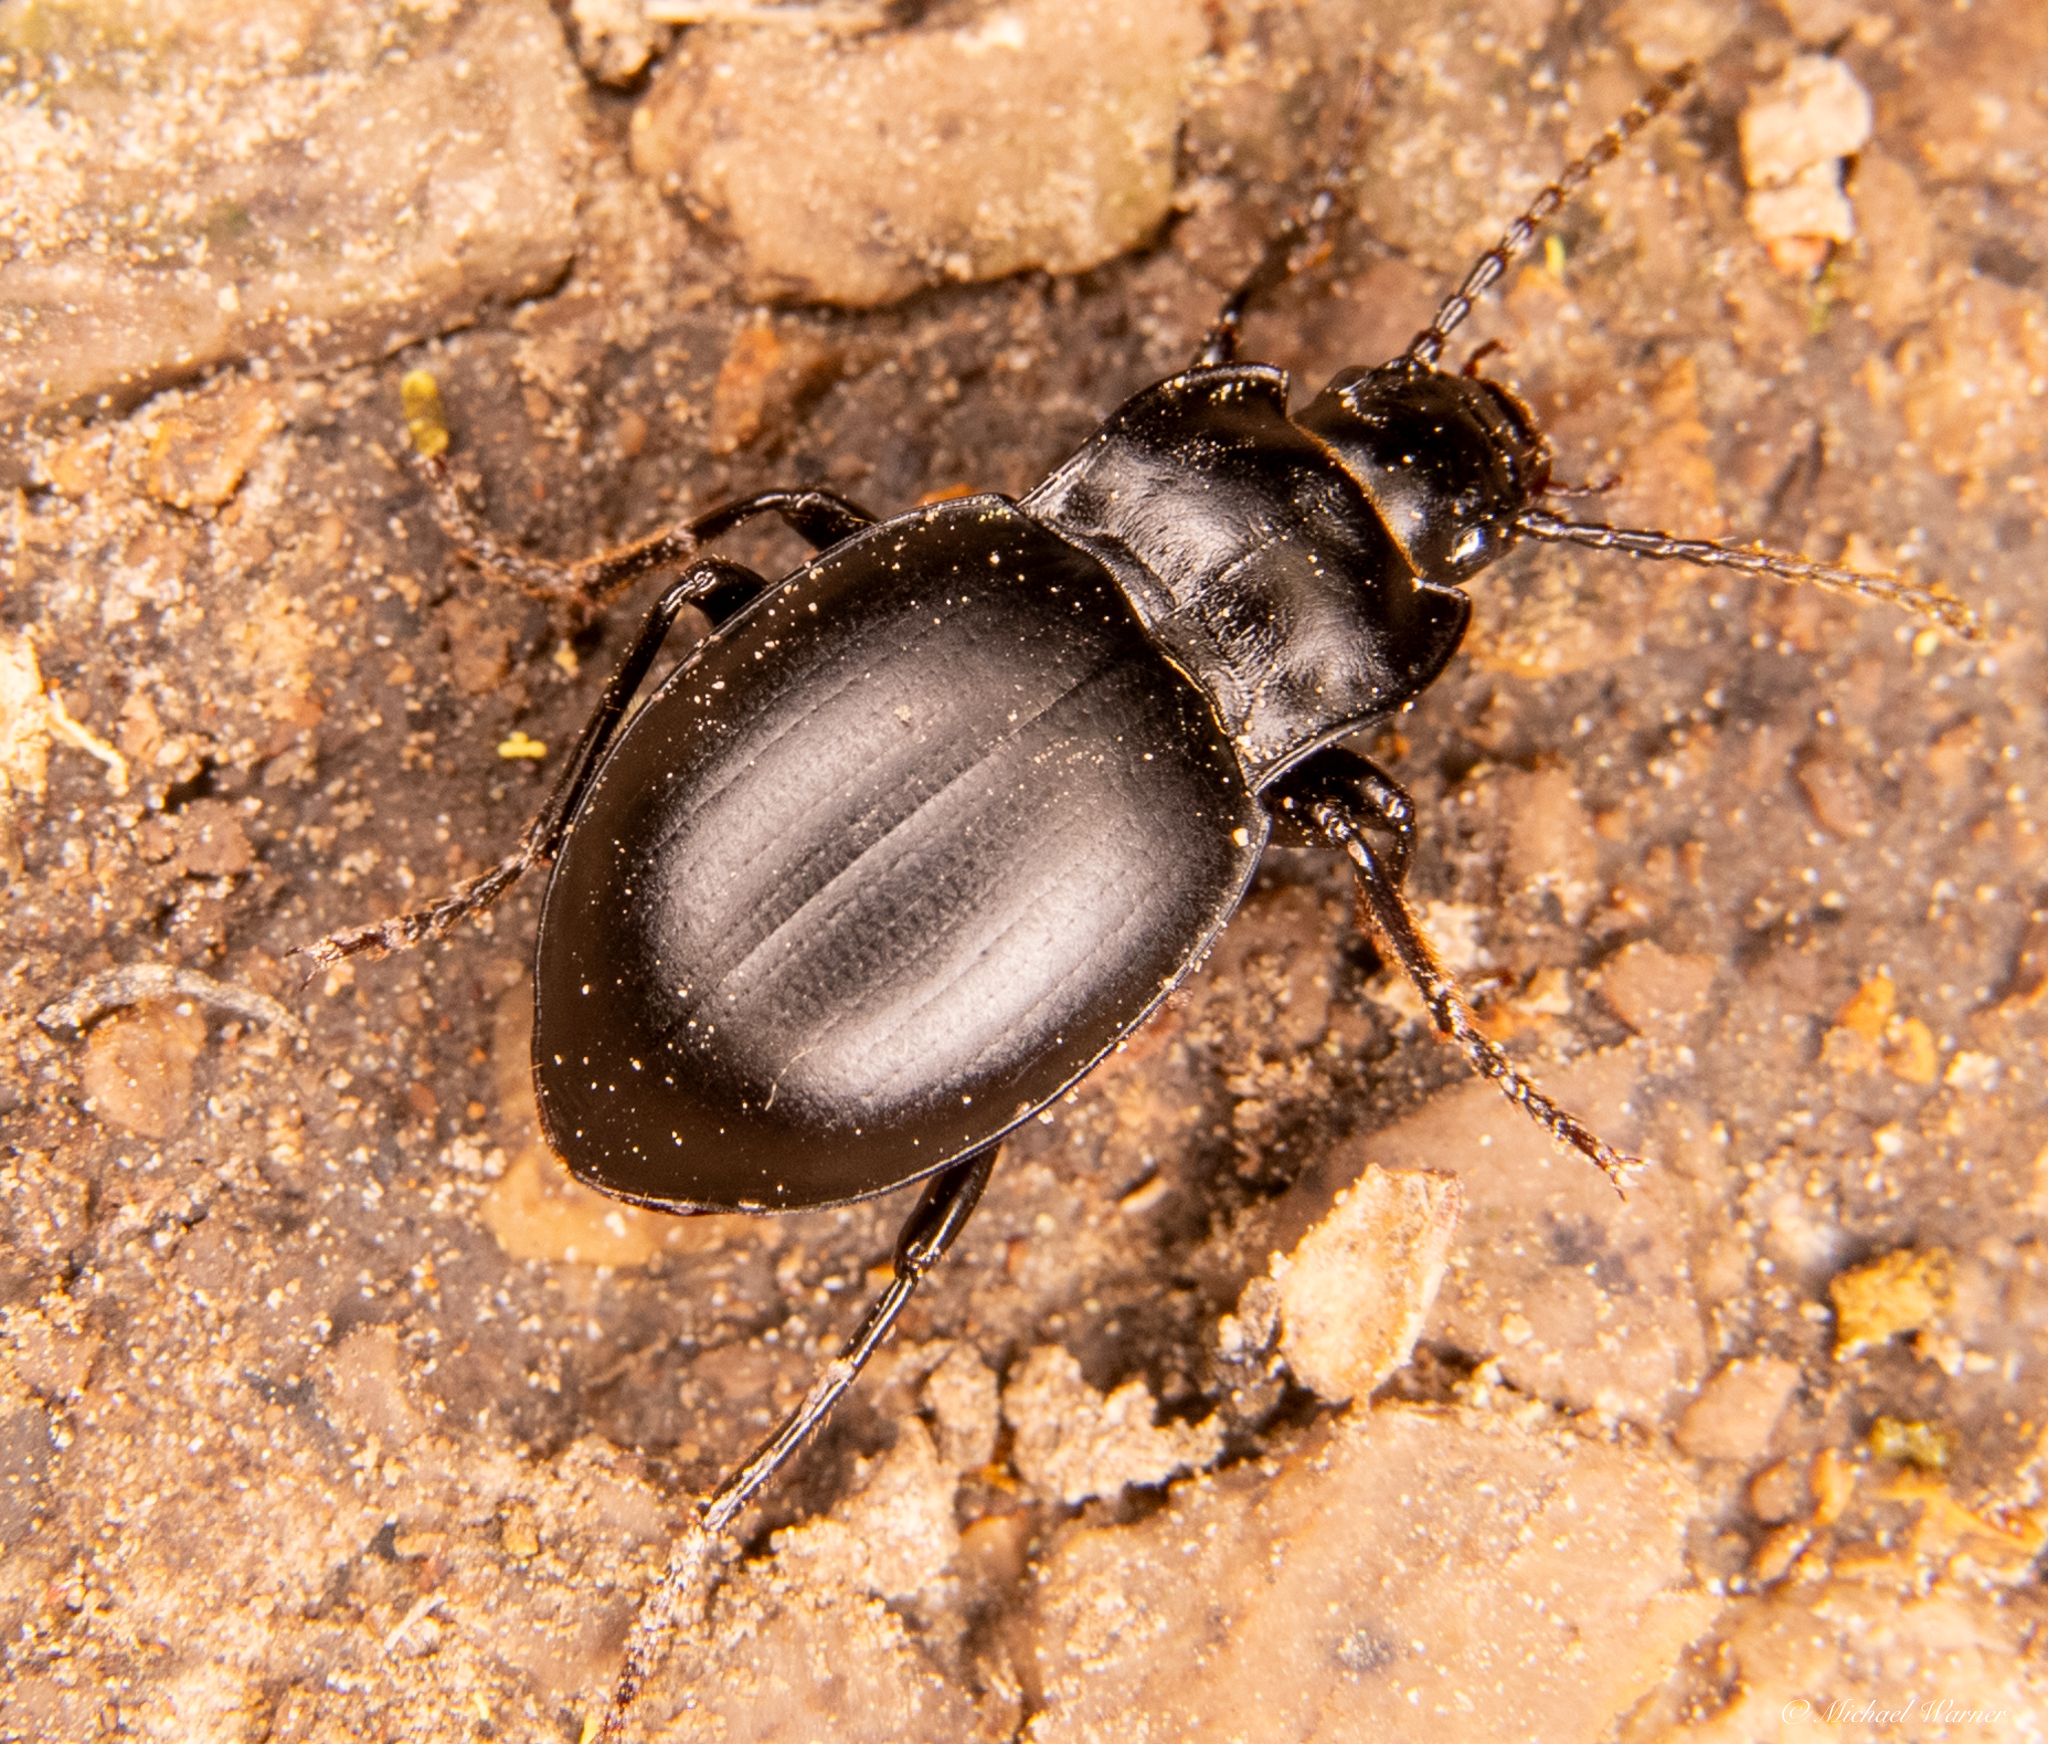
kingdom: Animalia
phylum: Arthropoda
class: Insecta
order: Coleoptera
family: Carabidae
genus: Metrius
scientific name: Metrius contractus
